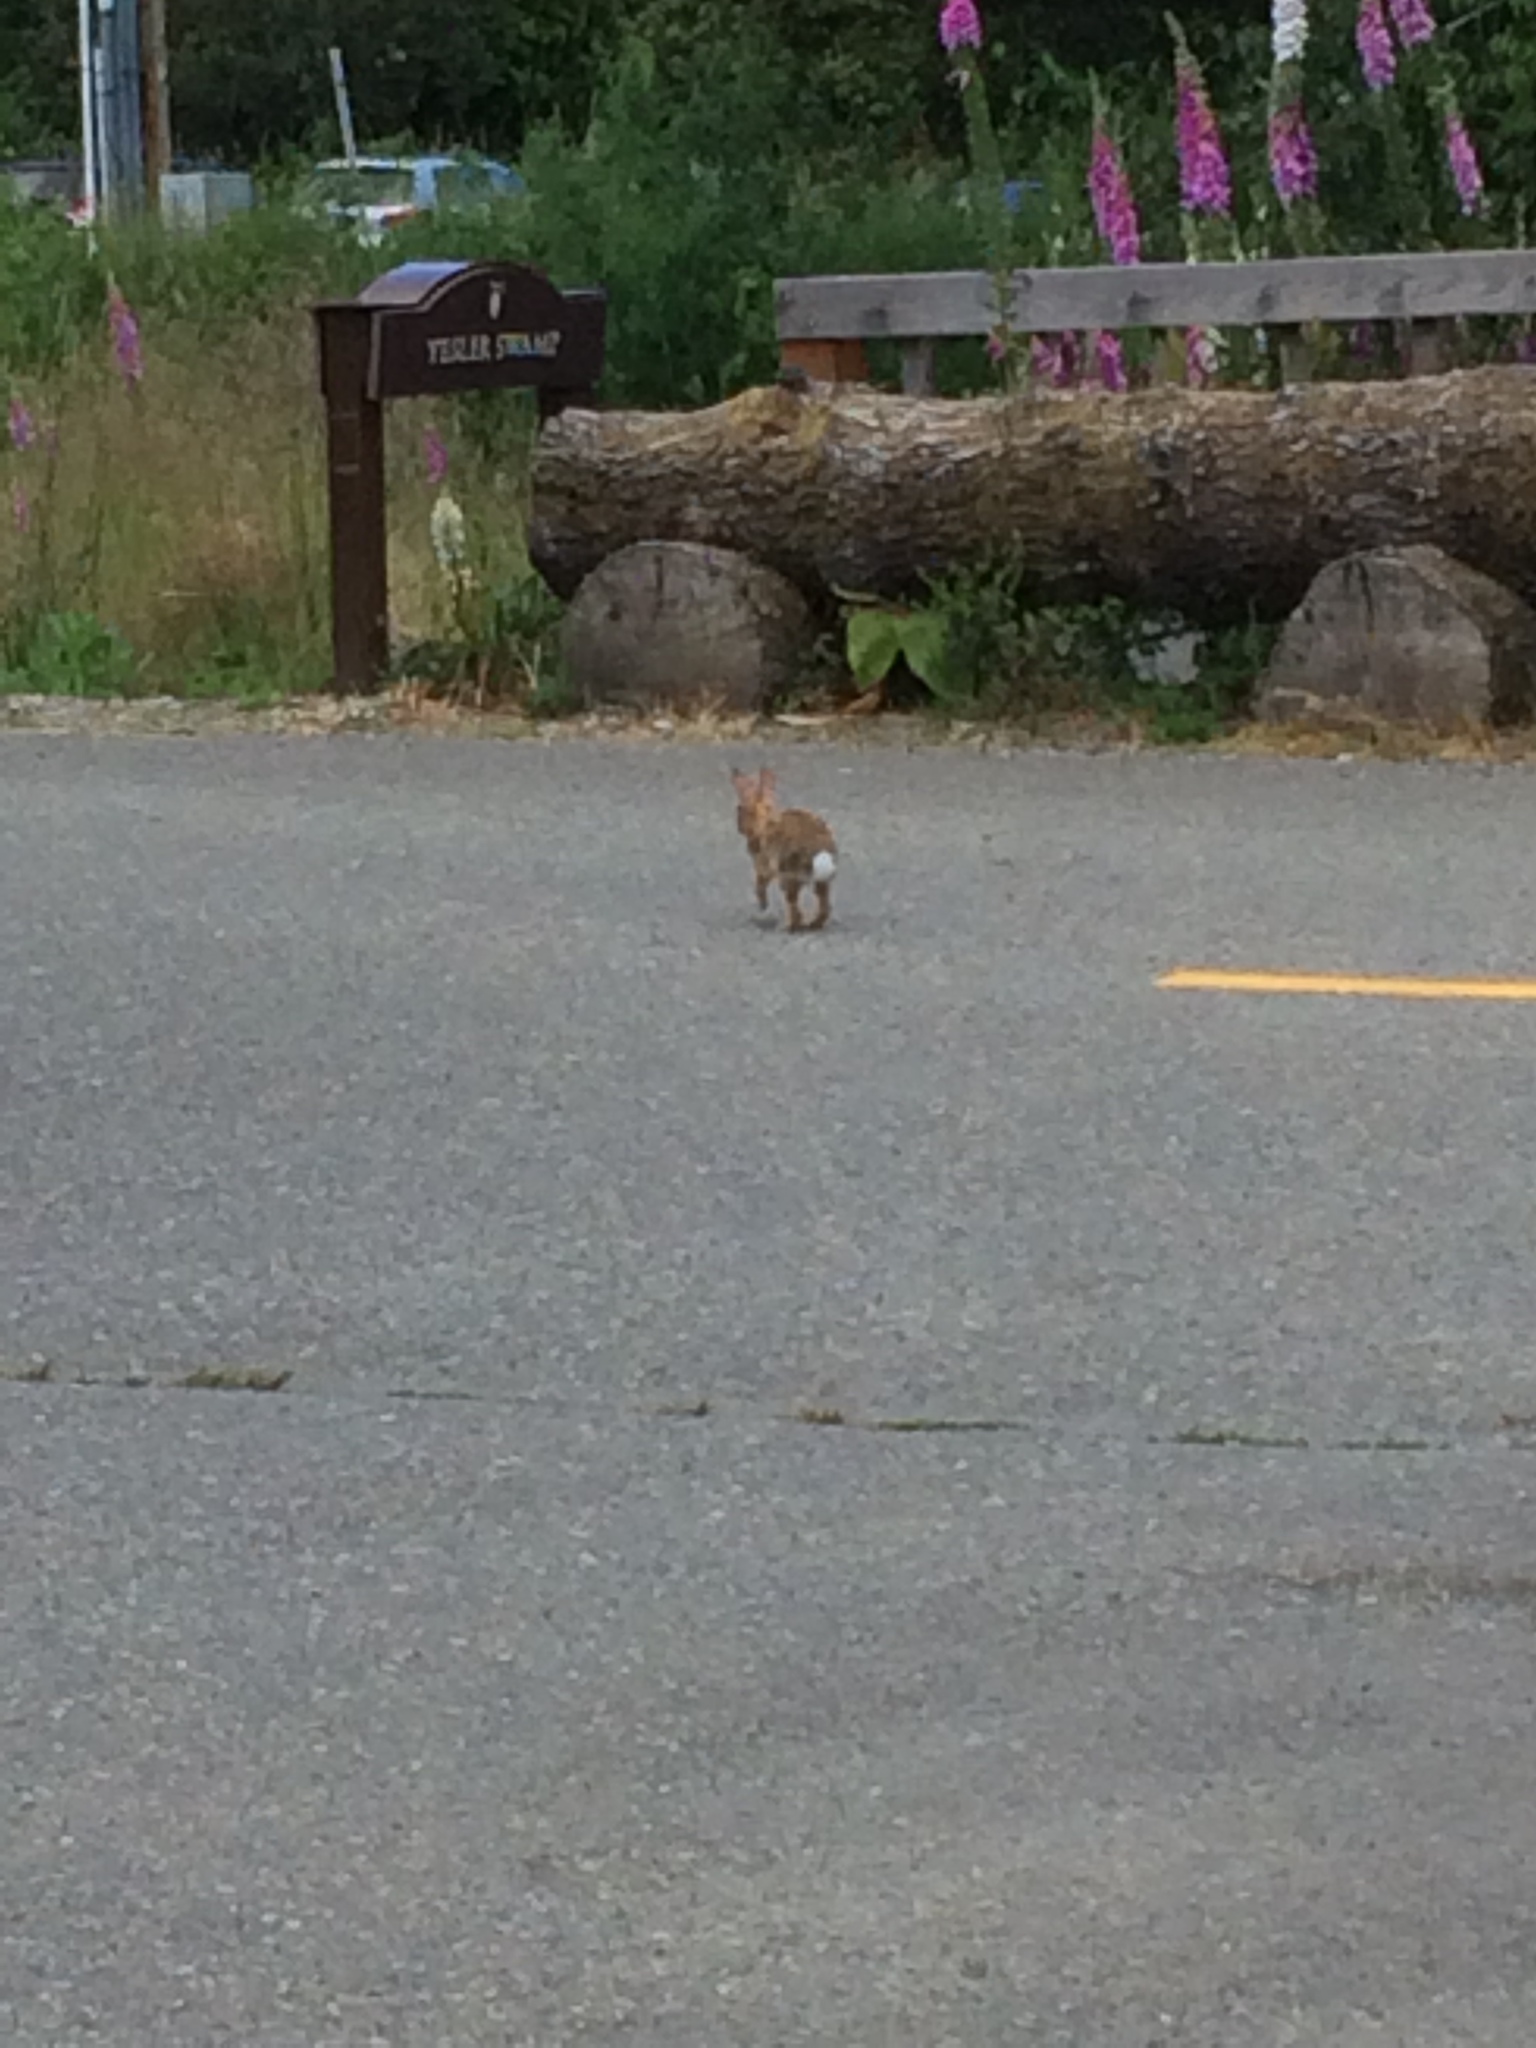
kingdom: Animalia
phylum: Chordata
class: Mammalia
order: Lagomorpha
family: Leporidae
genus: Sylvilagus
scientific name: Sylvilagus floridanus
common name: Eastern cottontail
